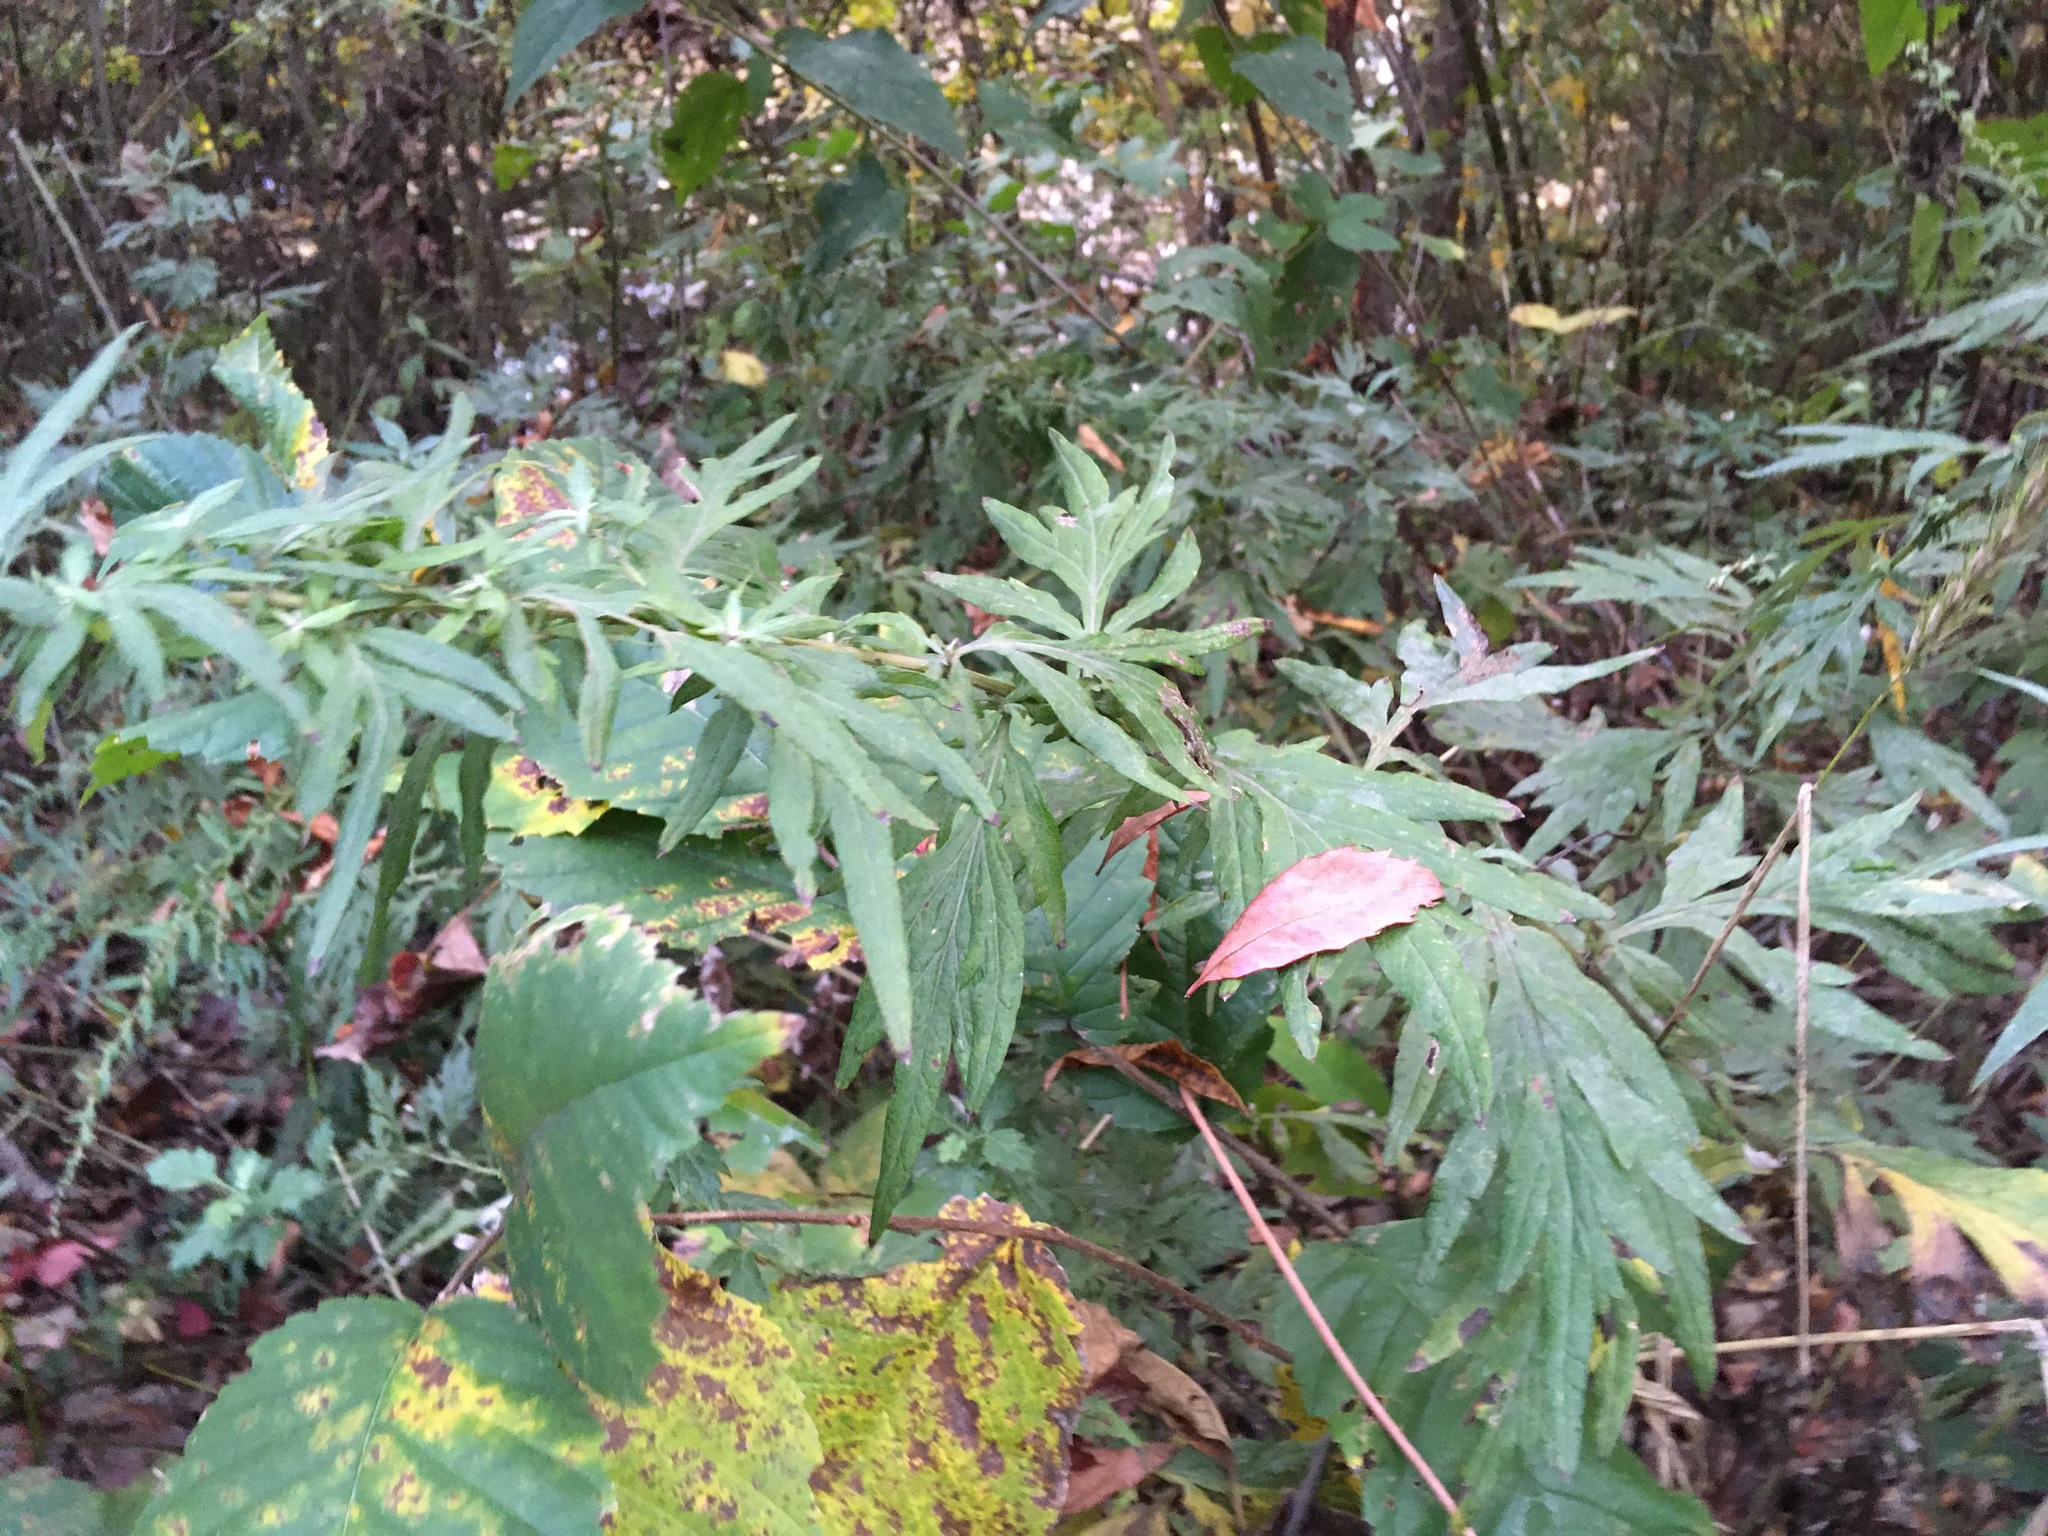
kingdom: Plantae
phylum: Tracheophyta
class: Magnoliopsida
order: Asterales
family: Asteraceae
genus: Artemisia
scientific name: Artemisia vulgaris
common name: Mugwort
